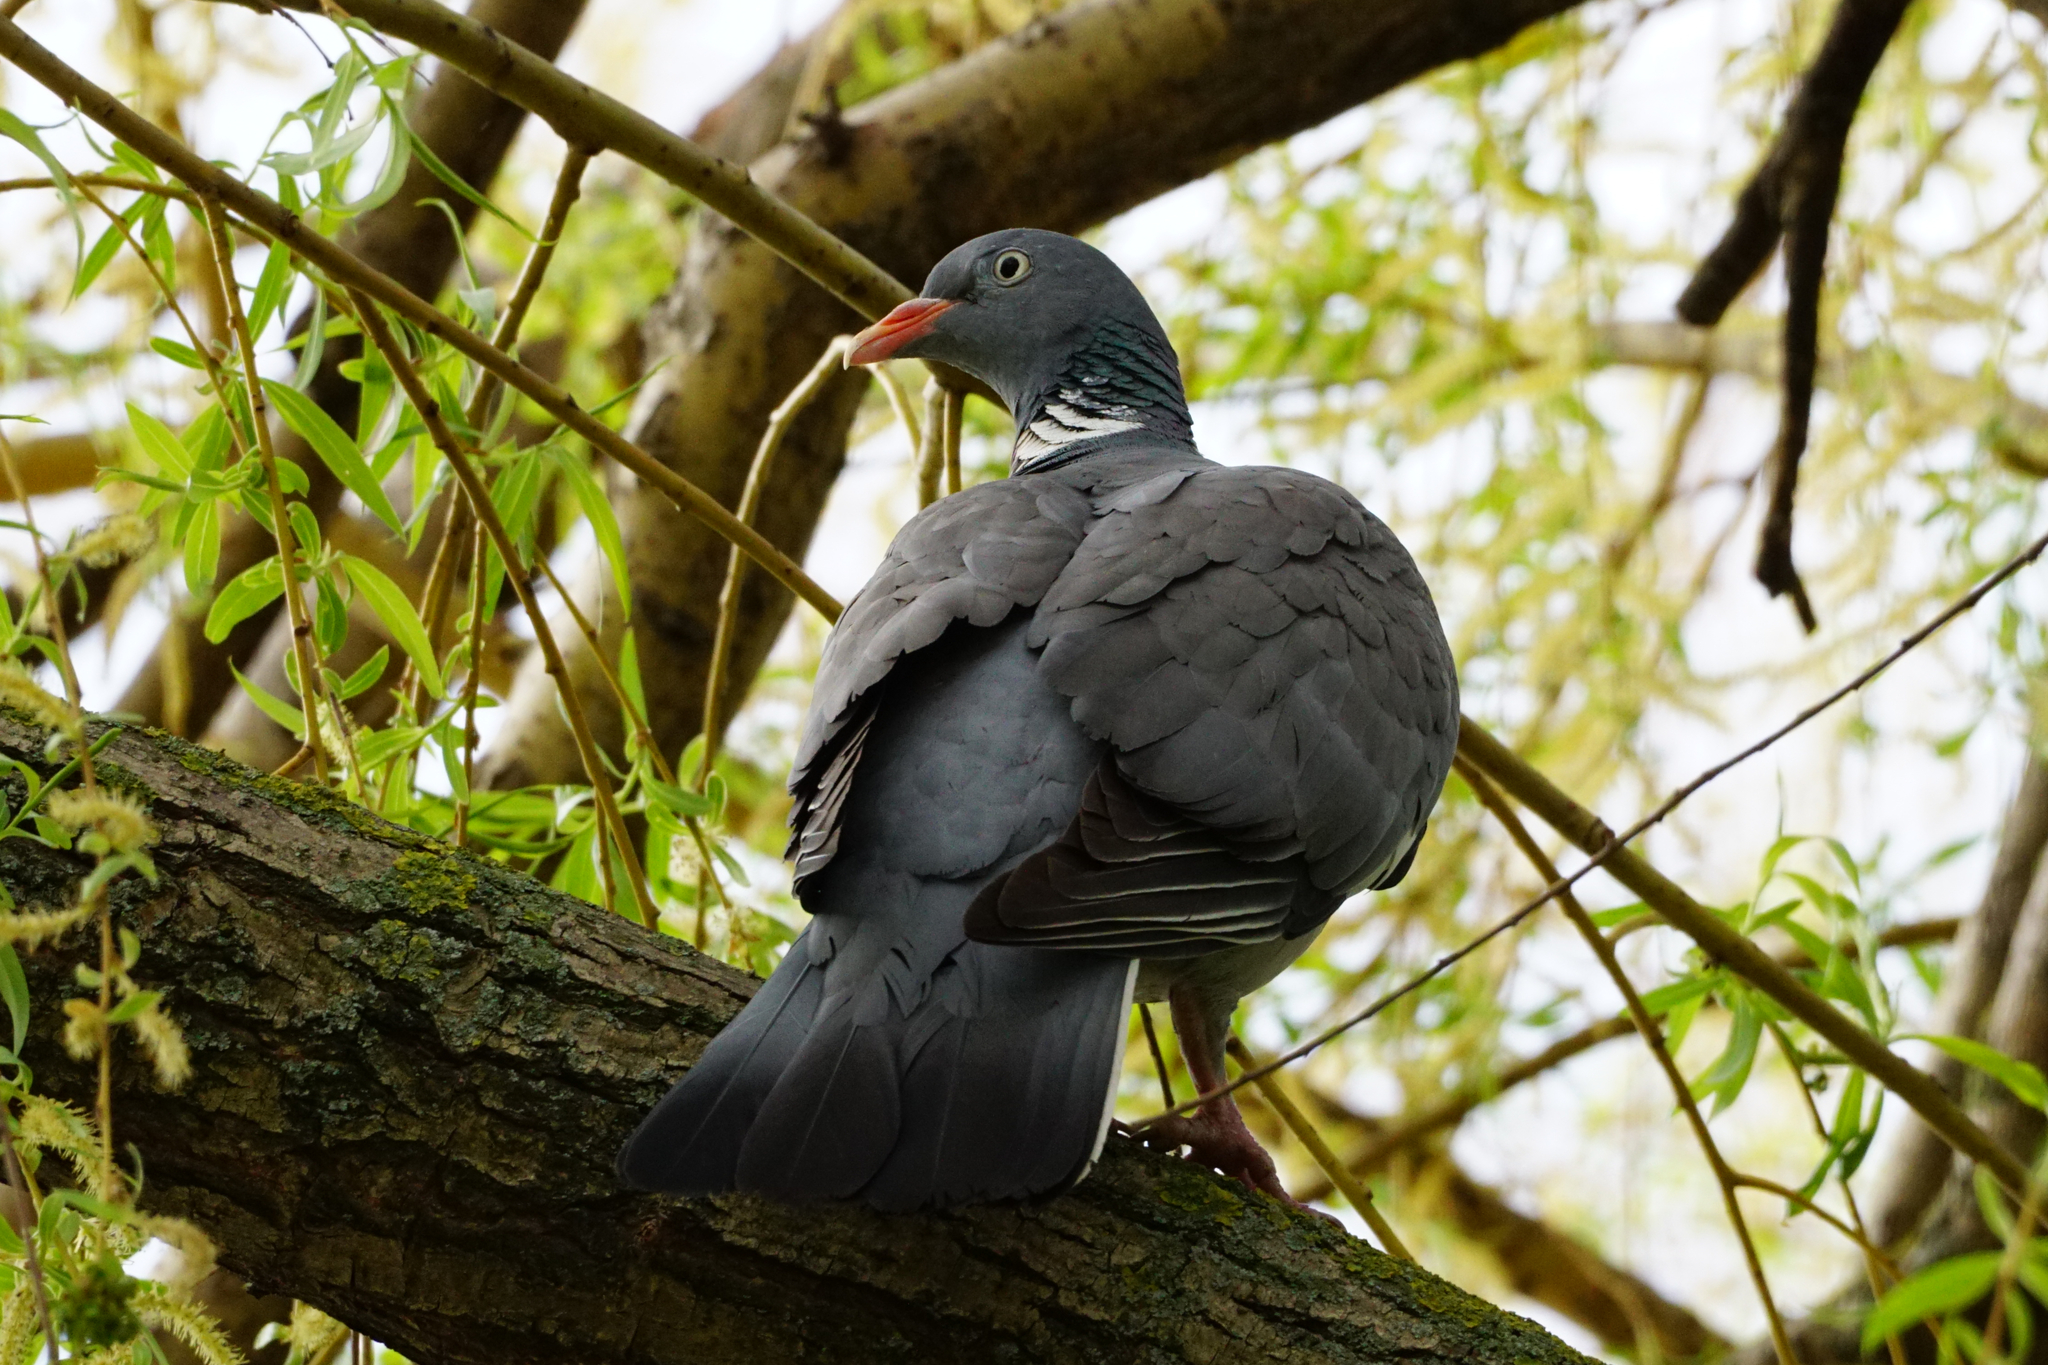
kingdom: Animalia
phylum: Chordata
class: Aves
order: Columbiformes
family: Columbidae
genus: Columba
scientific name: Columba palumbus
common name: Common wood pigeon
